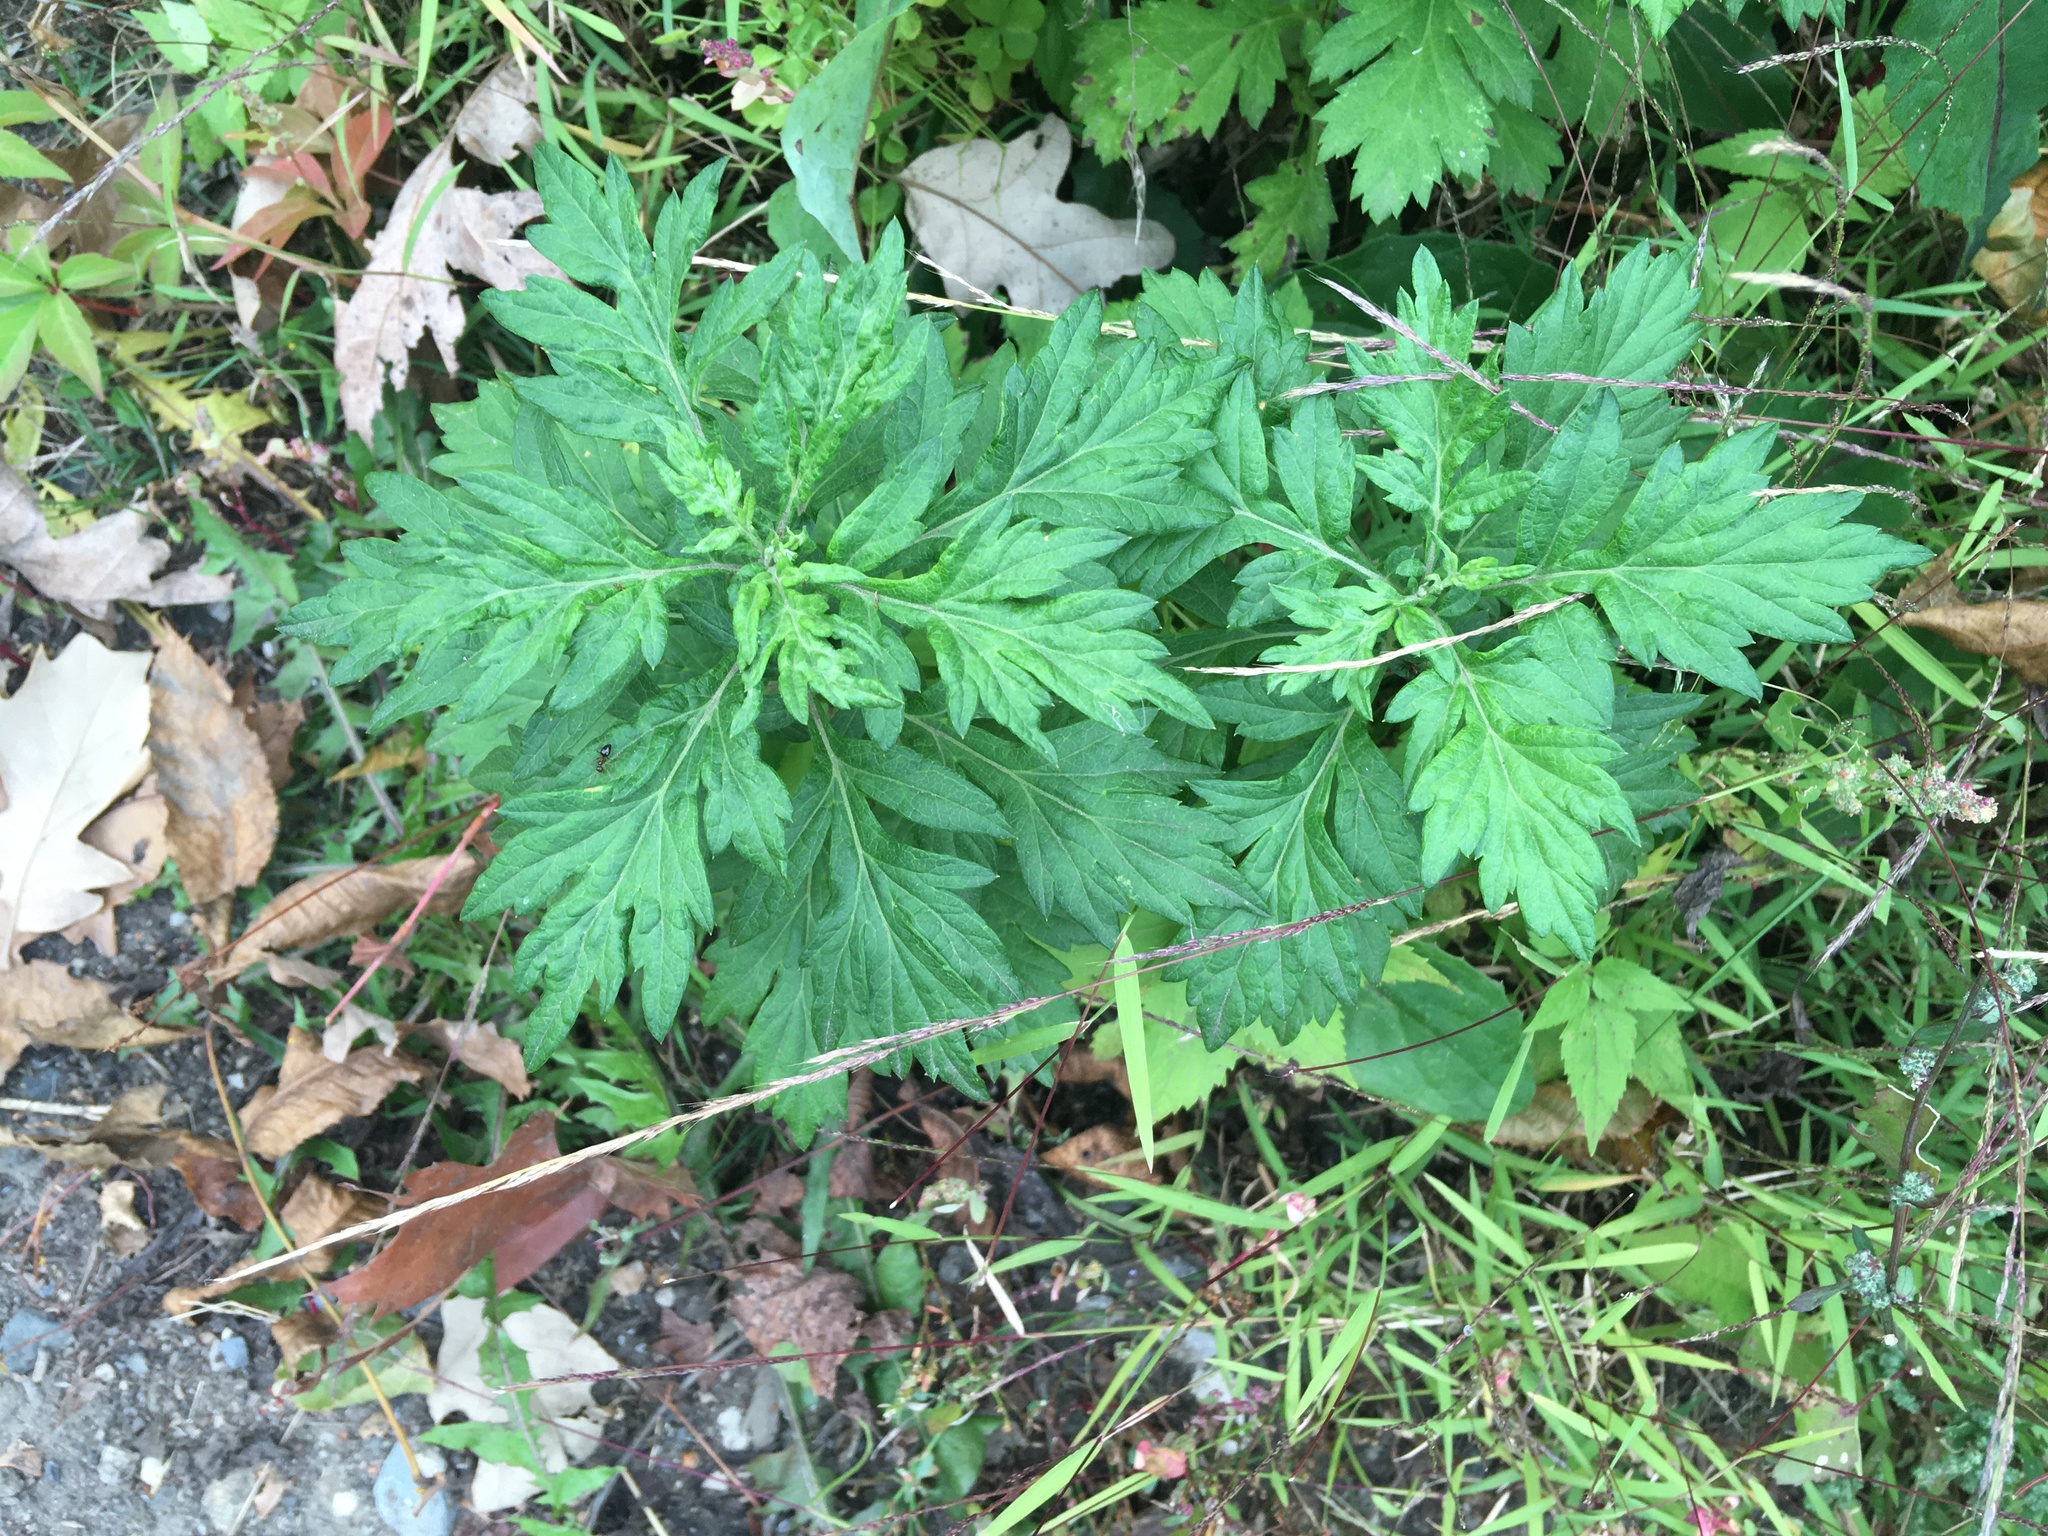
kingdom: Plantae
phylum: Tracheophyta
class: Magnoliopsida
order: Asterales
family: Asteraceae
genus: Artemisia
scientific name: Artemisia vulgaris
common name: Mugwort
